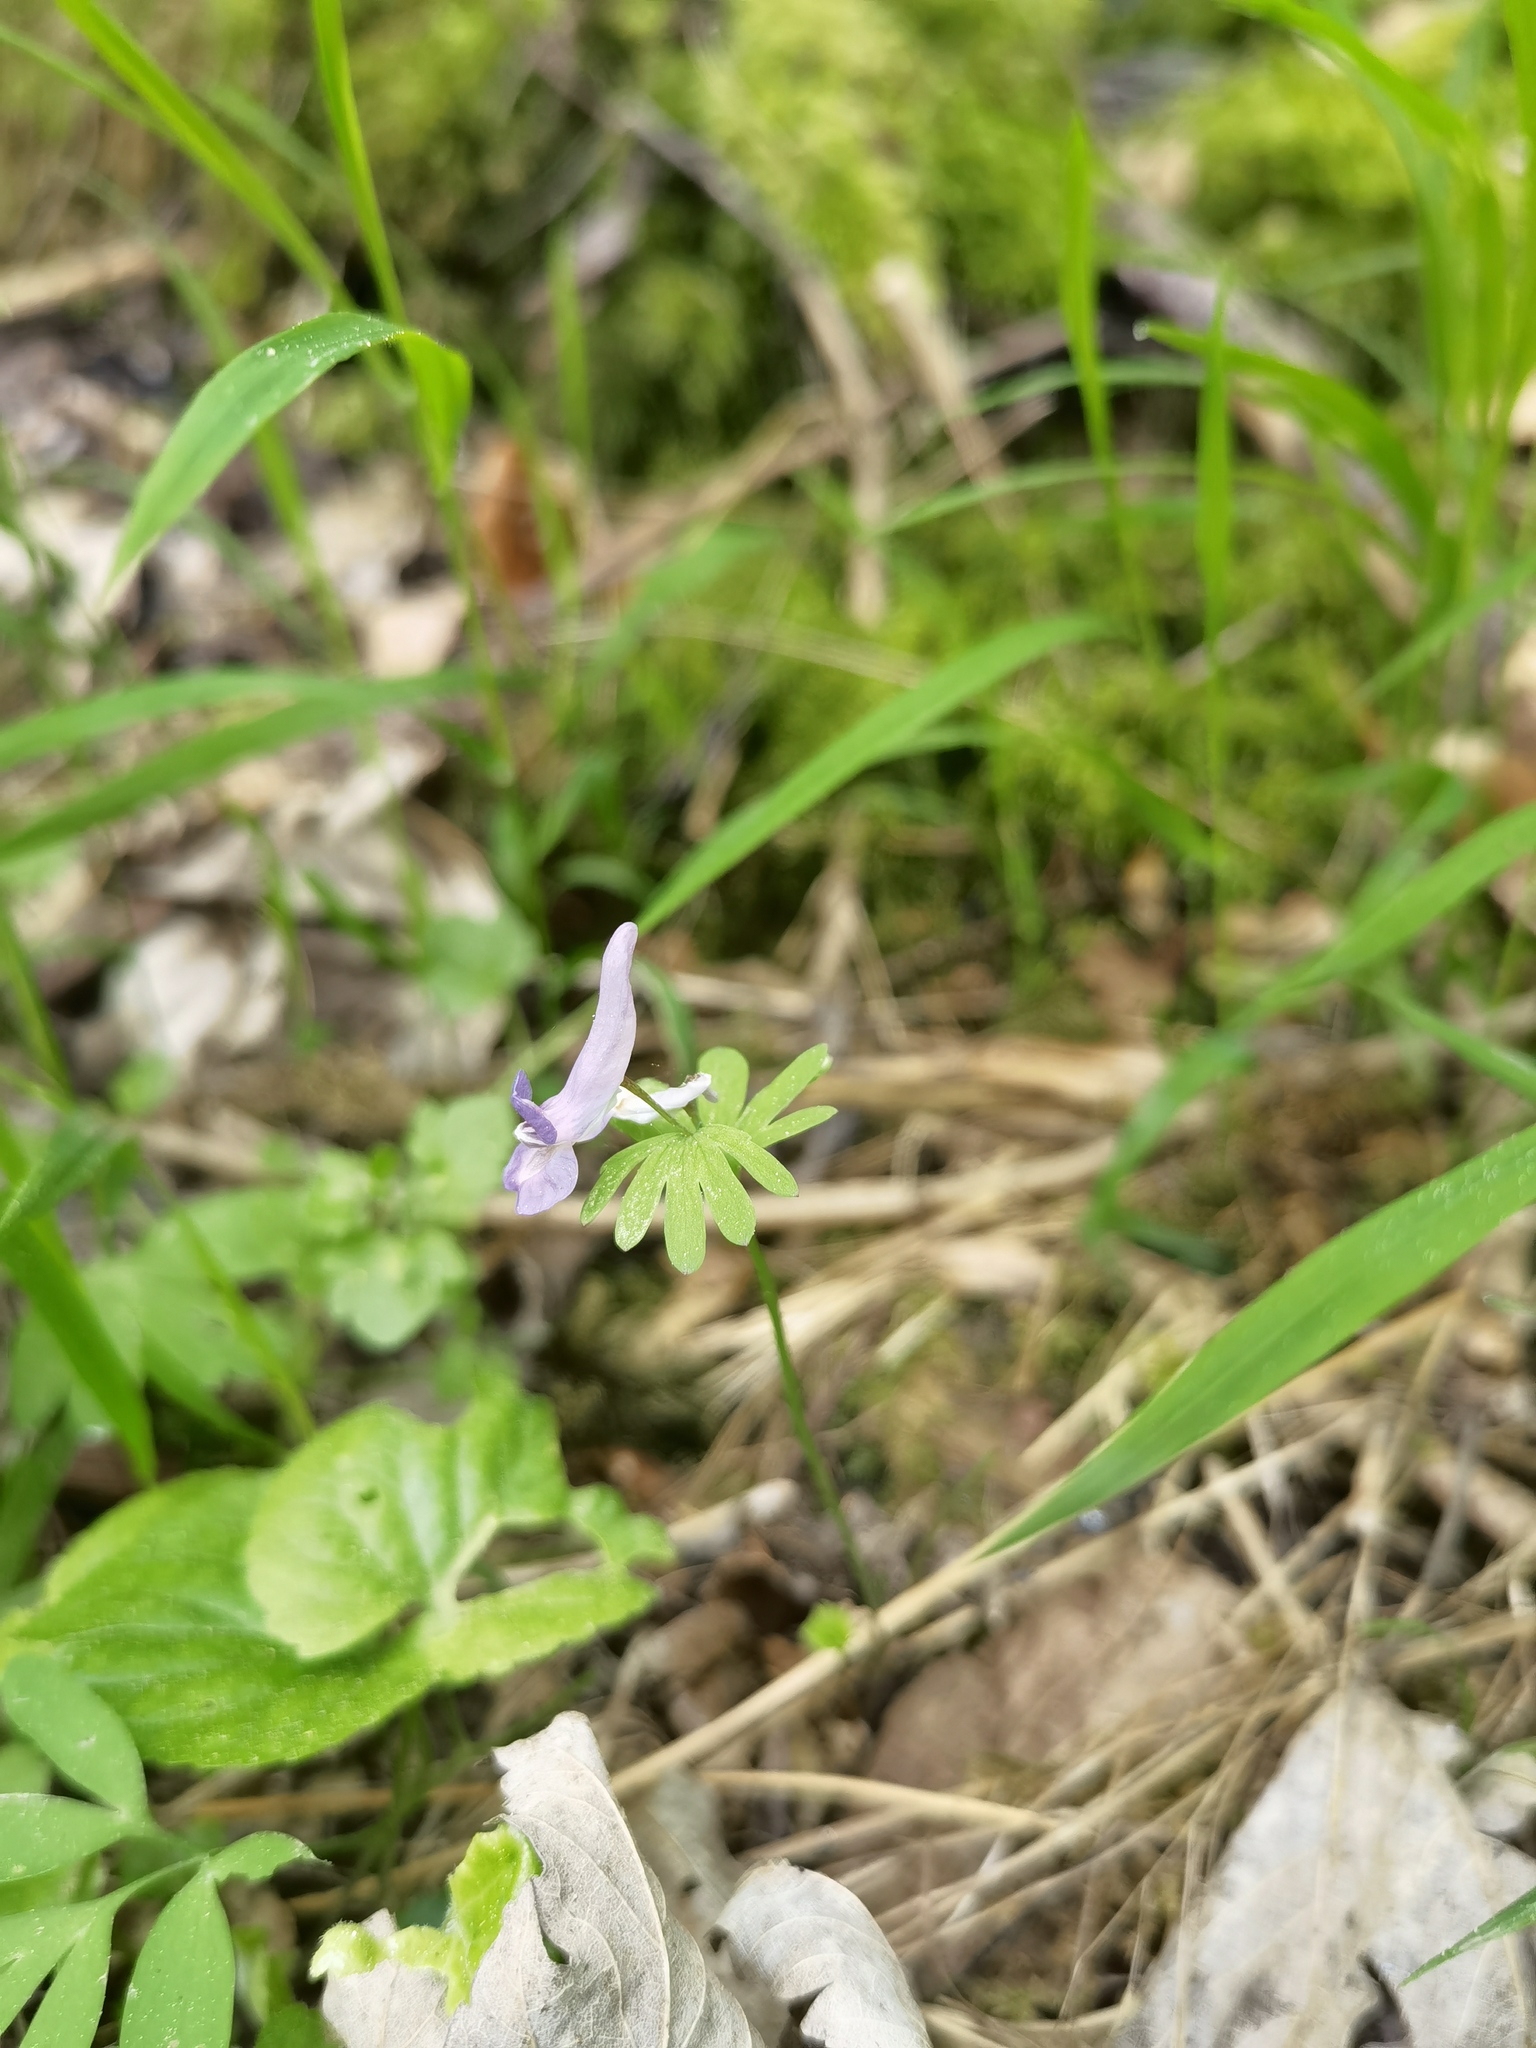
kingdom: Plantae
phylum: Tracheophyta
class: Magnoliopsida
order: Ranunculales
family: Papaveraceae
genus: Corydalis
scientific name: Corydalis solida
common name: Bird-in-a-bush
